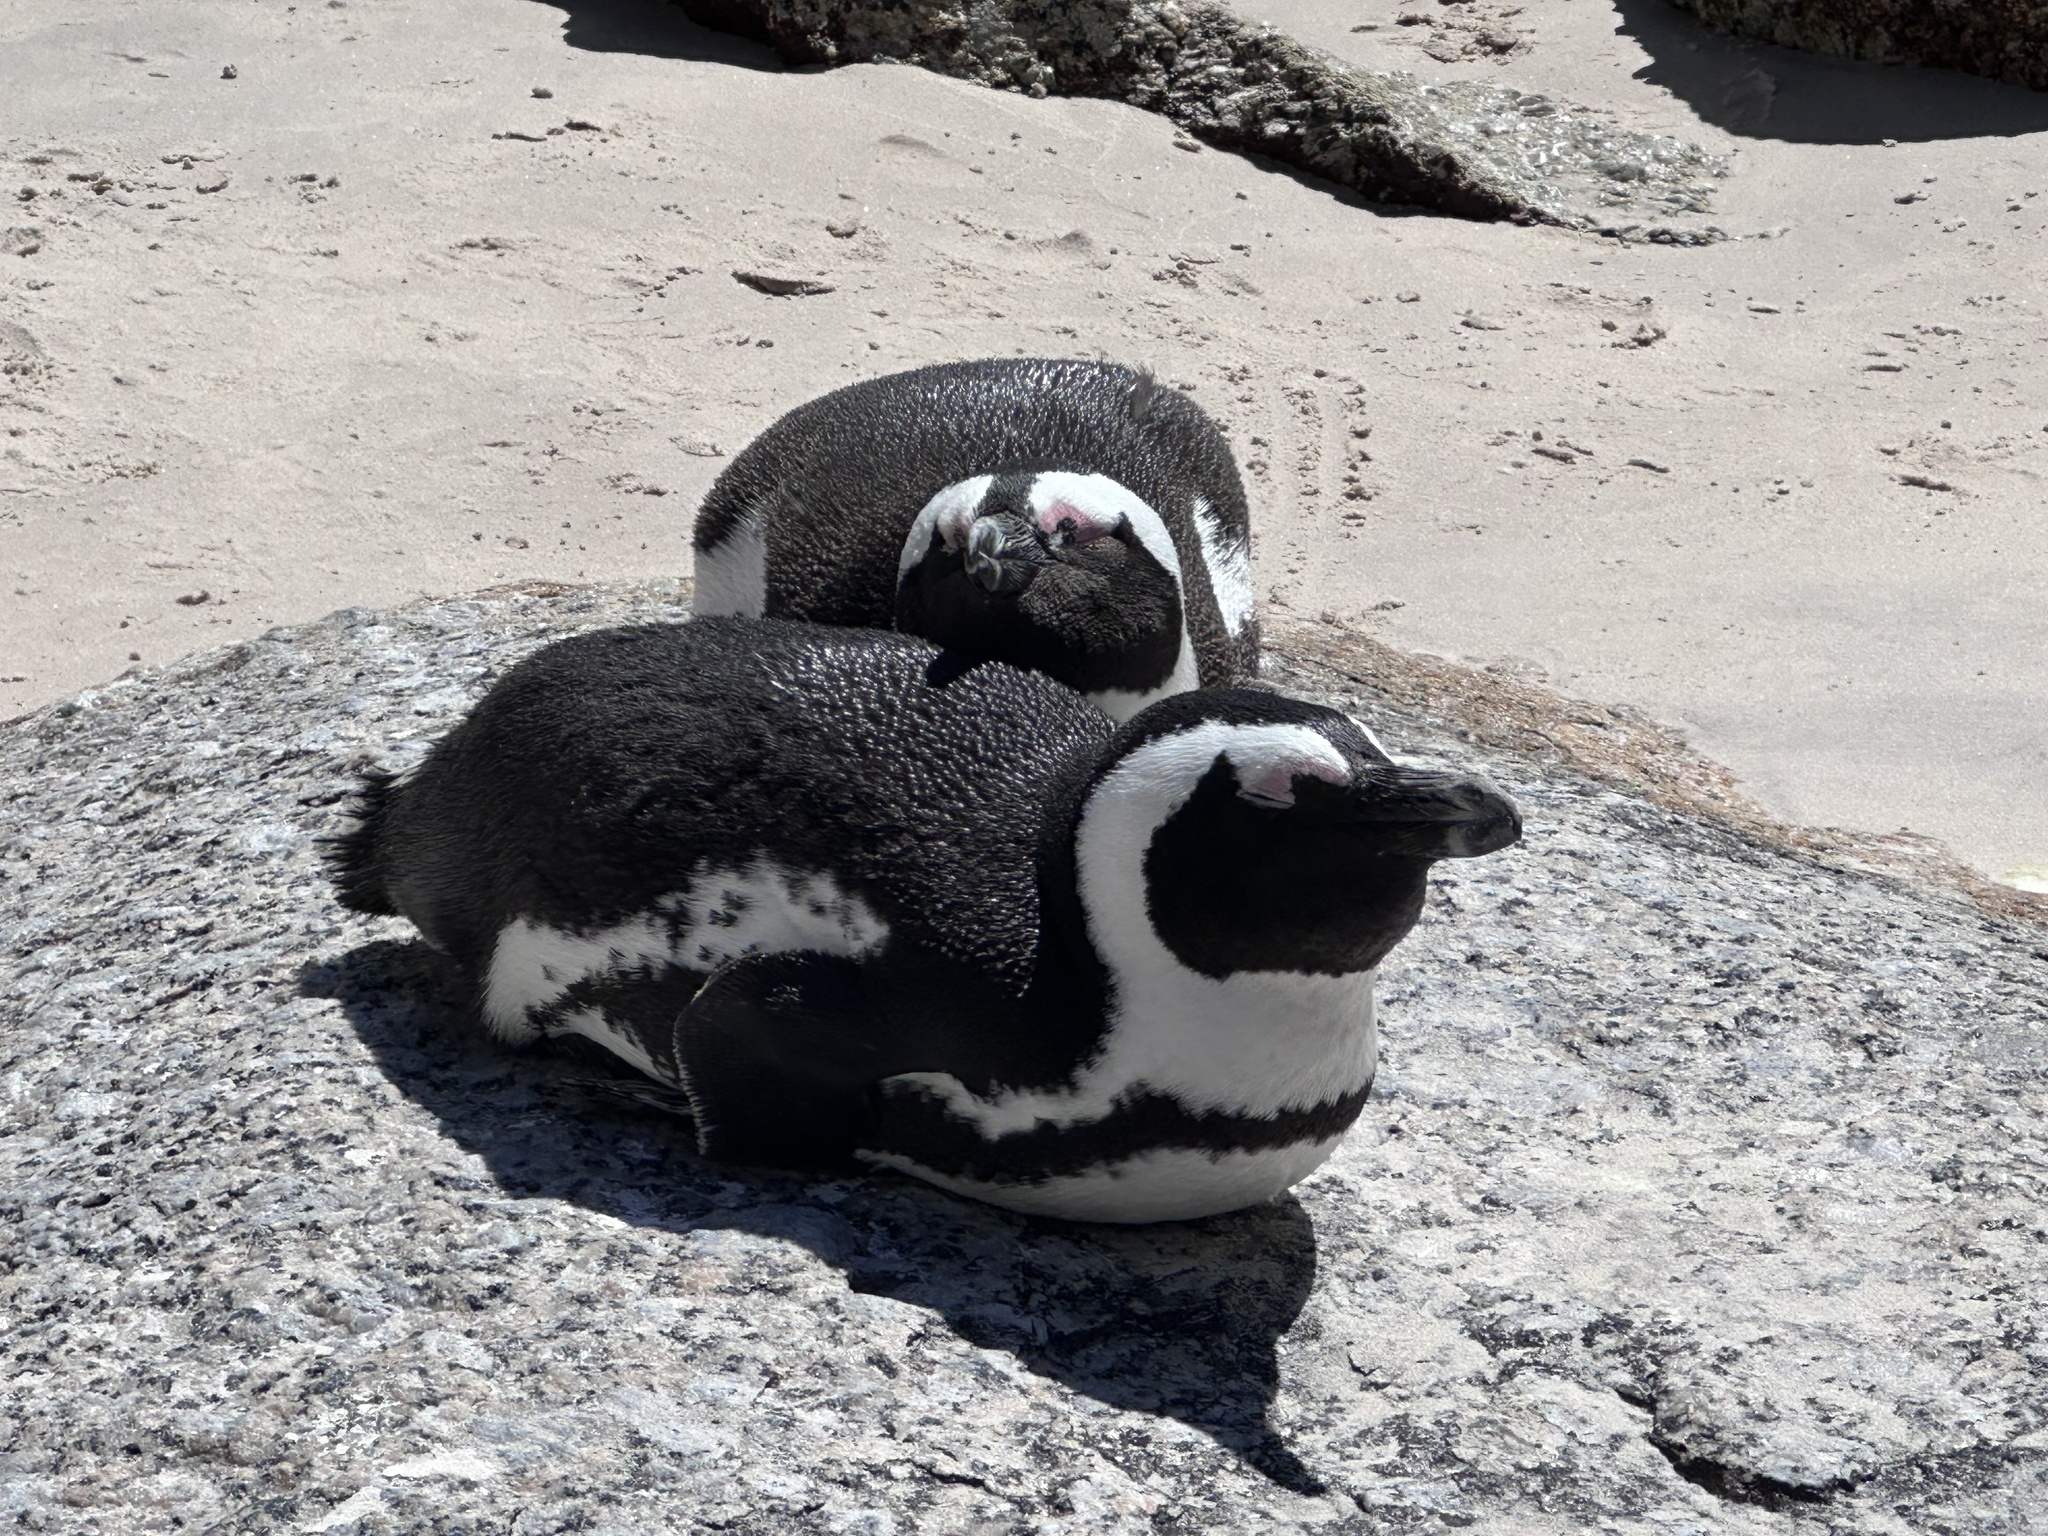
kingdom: Animalia
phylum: Chordata
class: Aves
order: Sphenisciformes
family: Spheniscidae
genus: Spheniscus
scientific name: Spheniscus demersus
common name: African penguin
